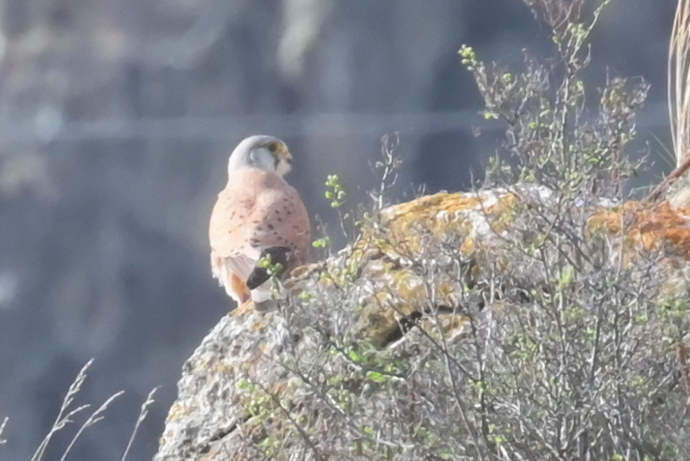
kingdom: Animalia
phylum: Chordata
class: Aves
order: Falconiformes
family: Falconidae
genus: Falco
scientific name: Falco tinnunculus
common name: Common kestrel
